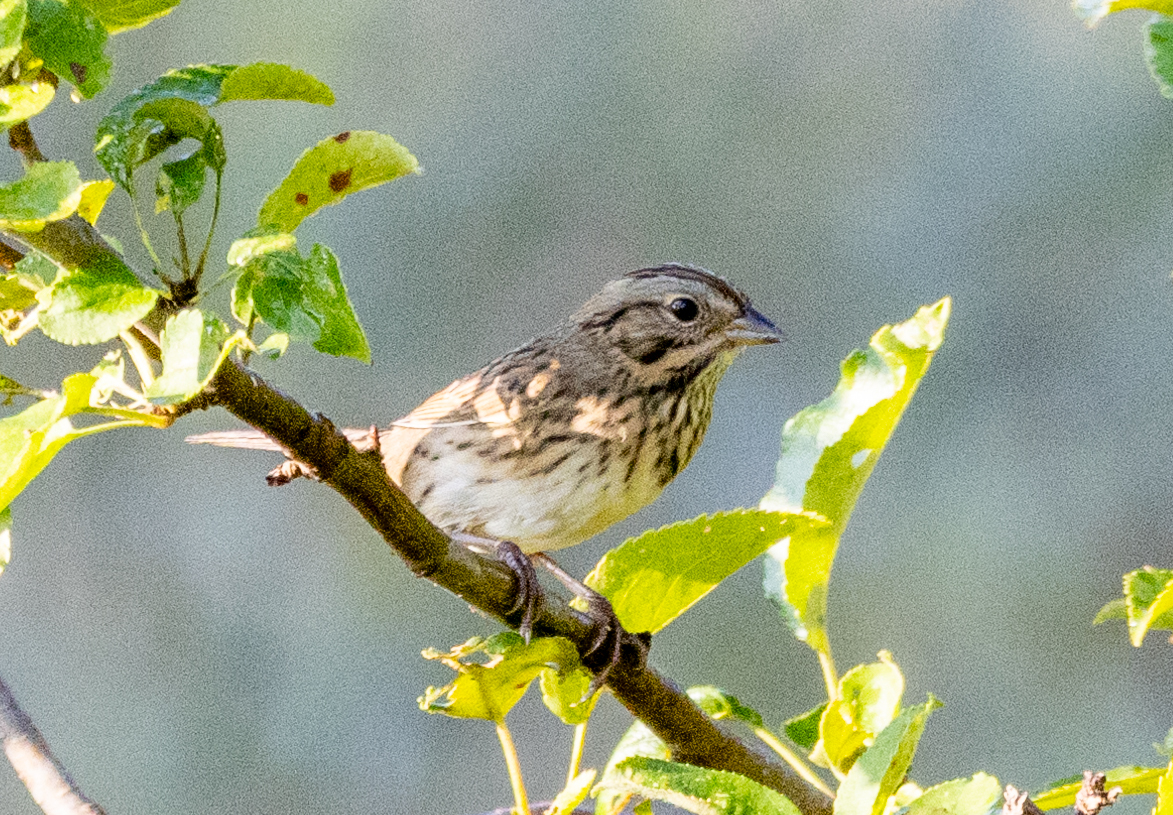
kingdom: Animalia
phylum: Chordata
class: Aves
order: Passeriformes
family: Passerellidae
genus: Melospiza
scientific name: Melospiza lincolnii
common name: Lincoln's sparrow
